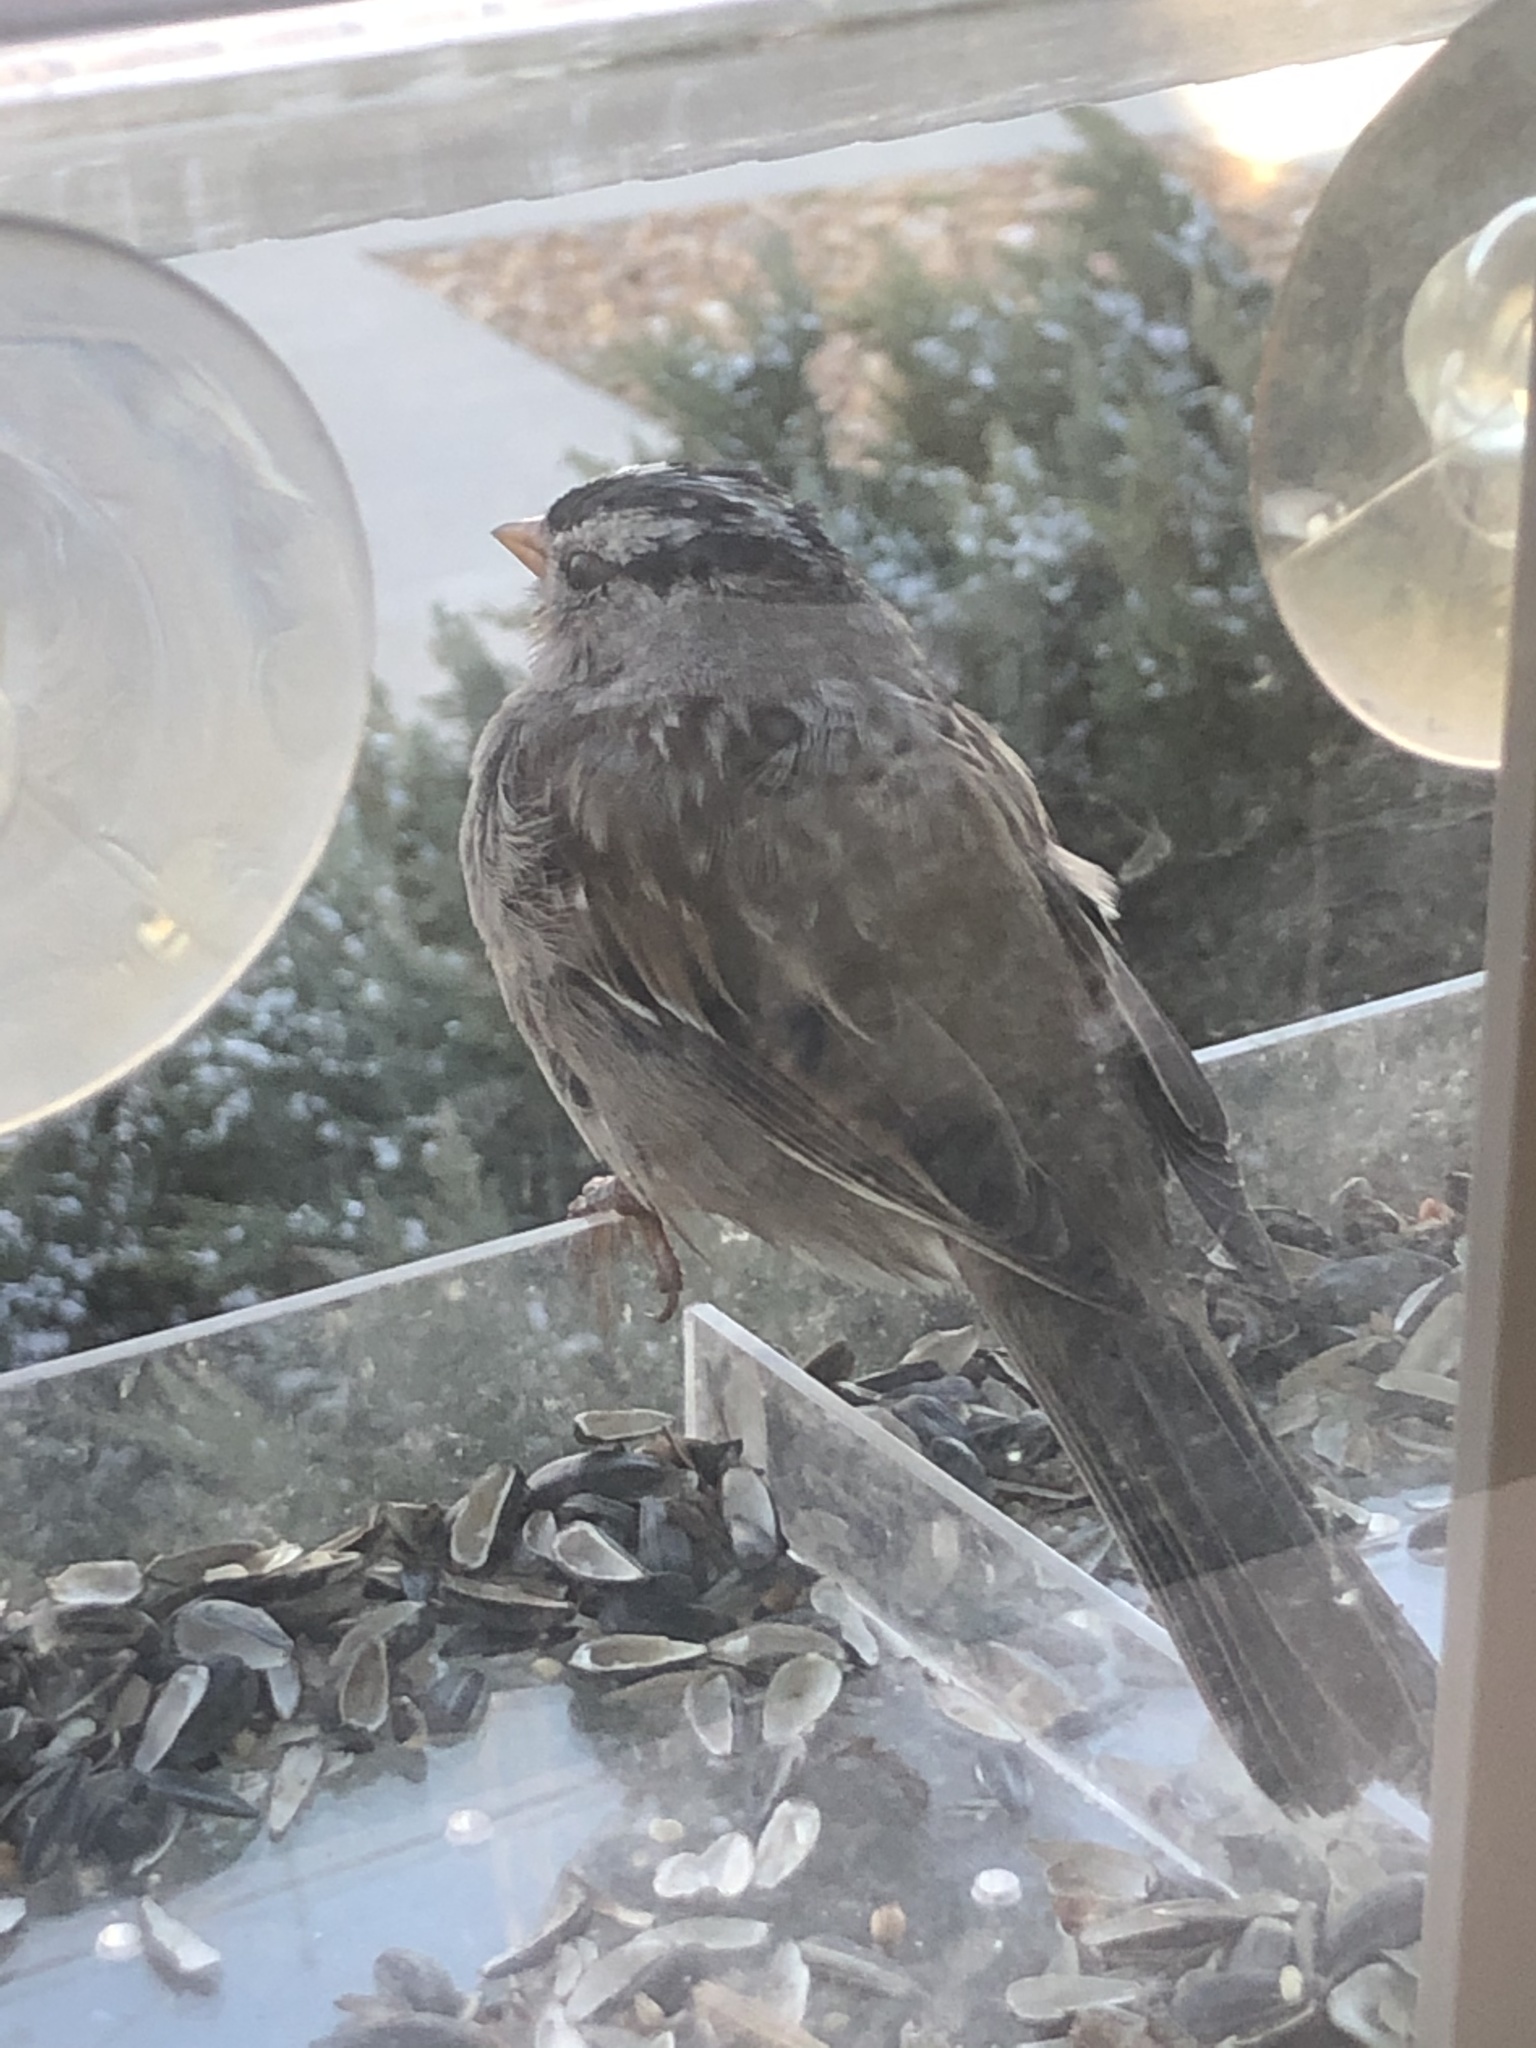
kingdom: Animalia
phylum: Chordata
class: Aves
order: Passeriformes
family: Passerellidae
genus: Zonotrichia
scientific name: Zonotrichia leucophrys
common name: White-crowned sparrow
